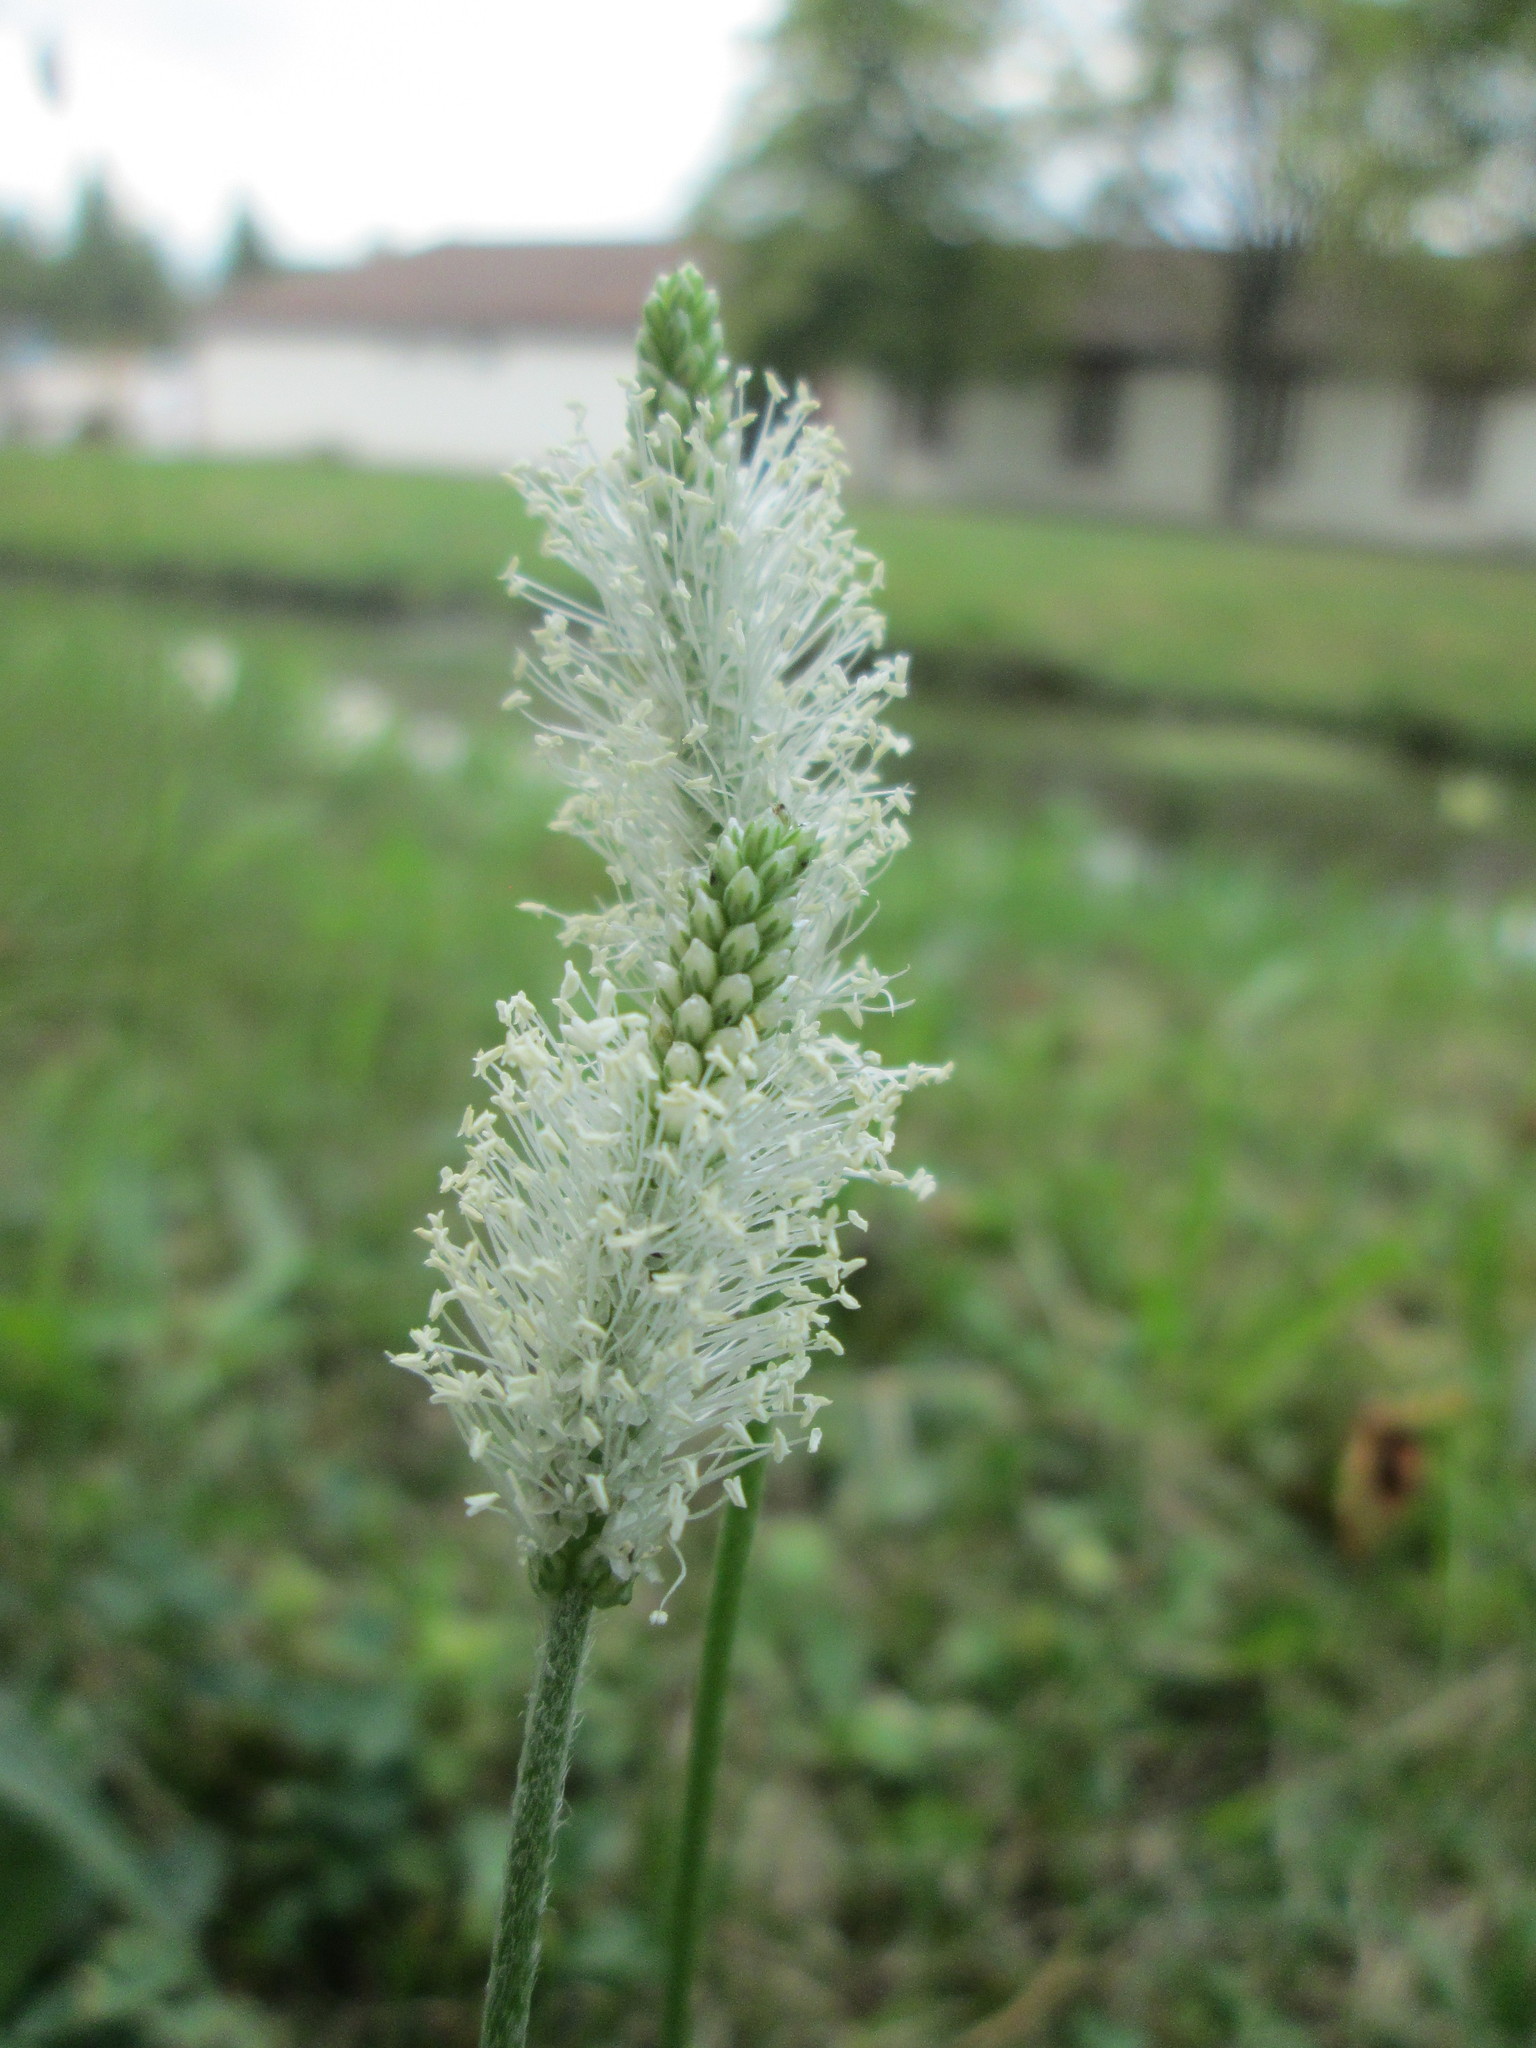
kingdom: Plantae
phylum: Tracheophyta
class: Magnoliopsida
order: Lamiales
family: Plantaginaceae
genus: Plantago
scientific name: Plantago media
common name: Hoary plantain
